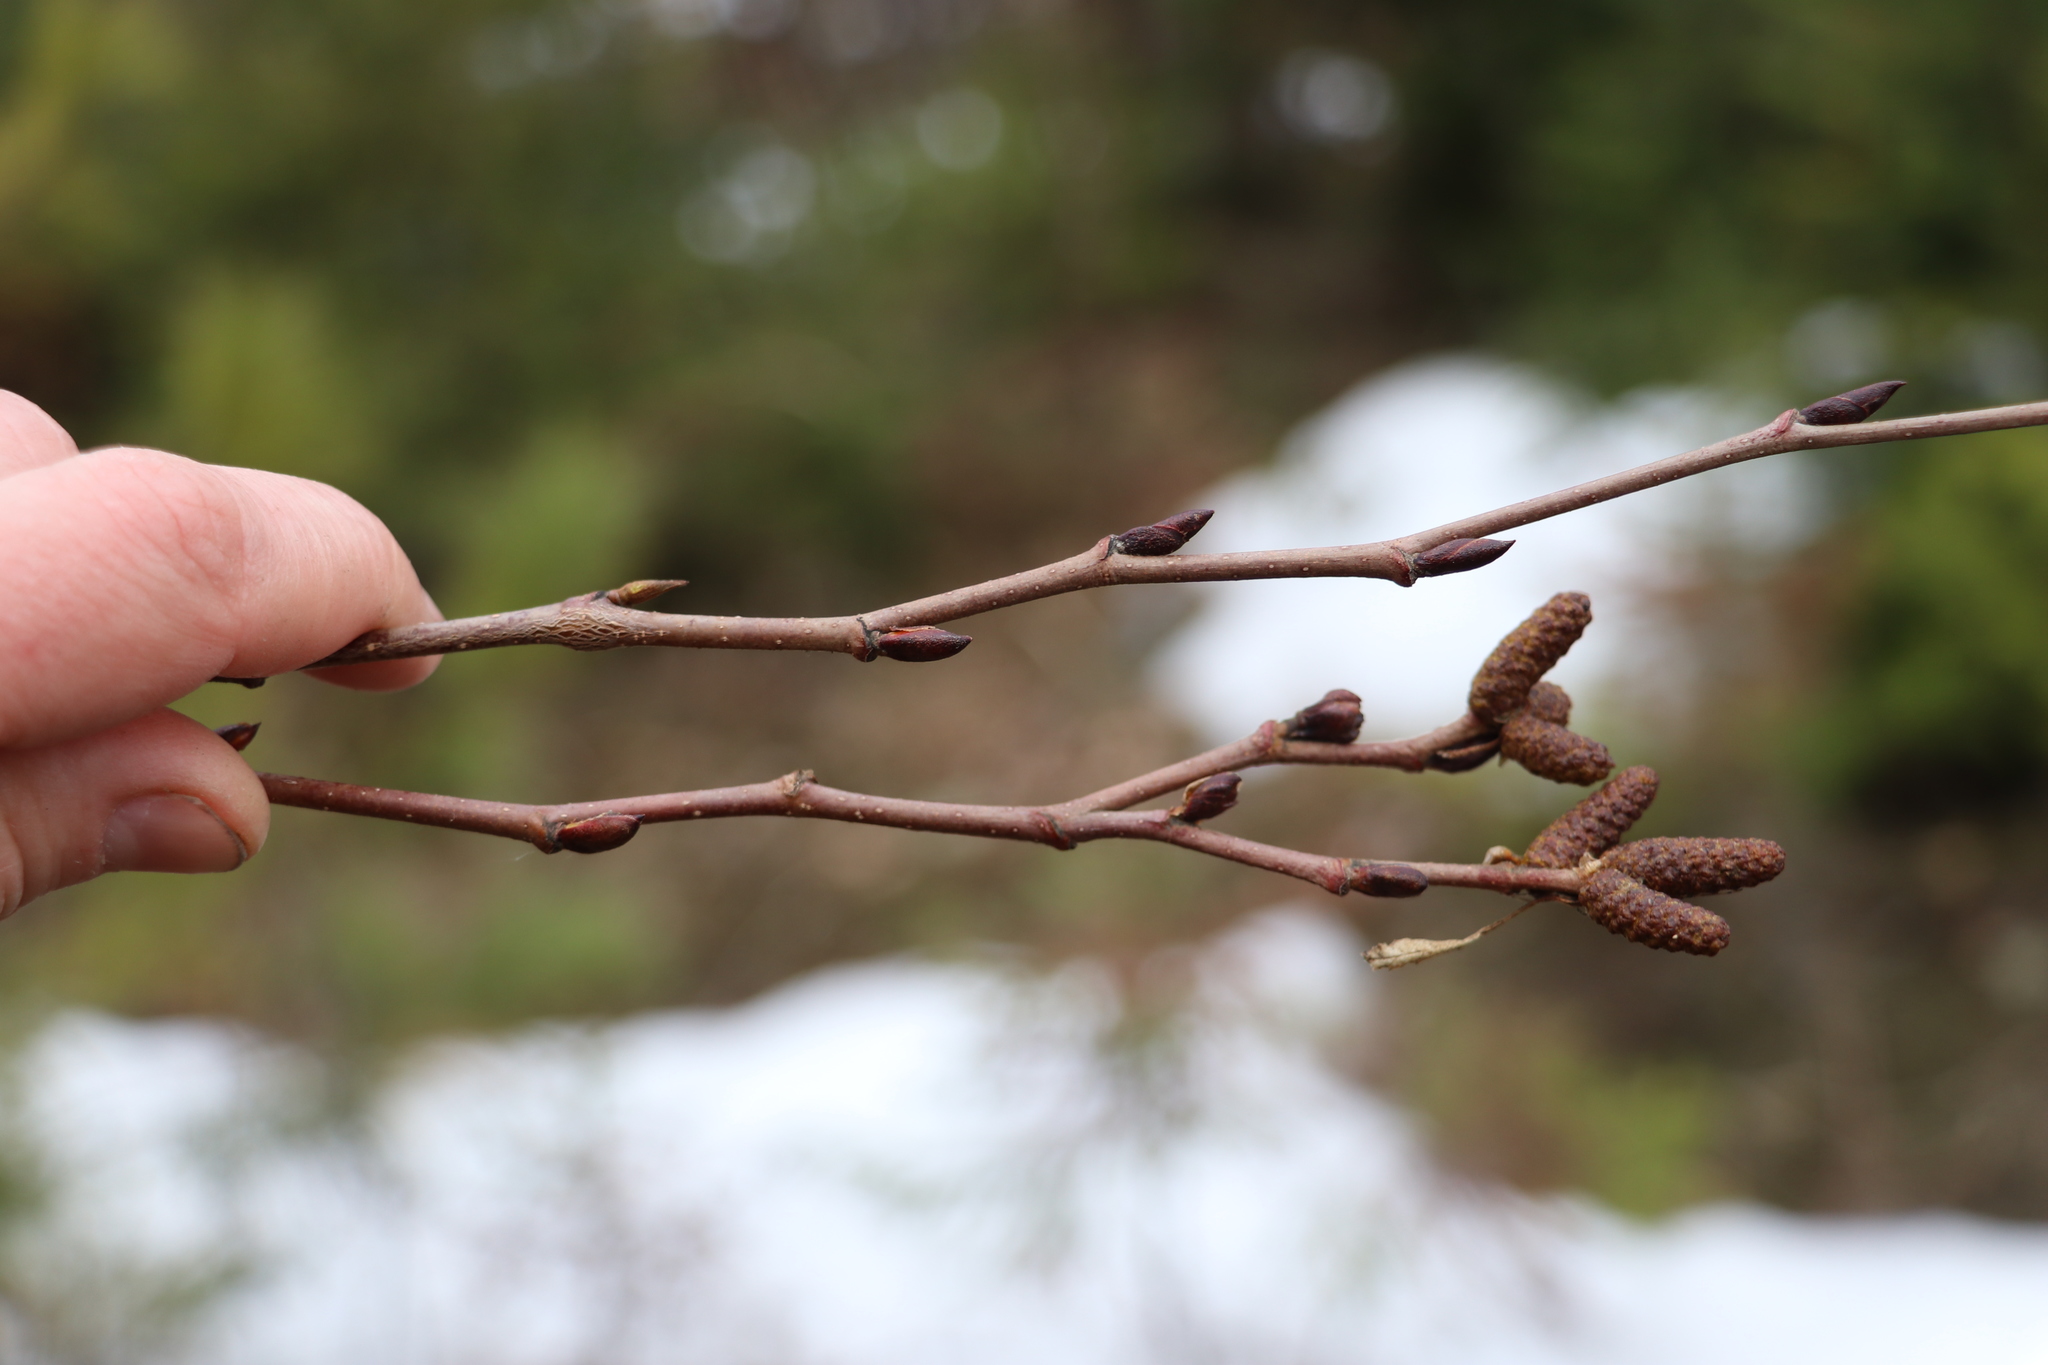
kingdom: Plantae
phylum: Tracheophyta
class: Magnoliopsida
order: Fagales
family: Betulaceae
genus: Alnus
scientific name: Alnus alnobetula
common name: Green alder
